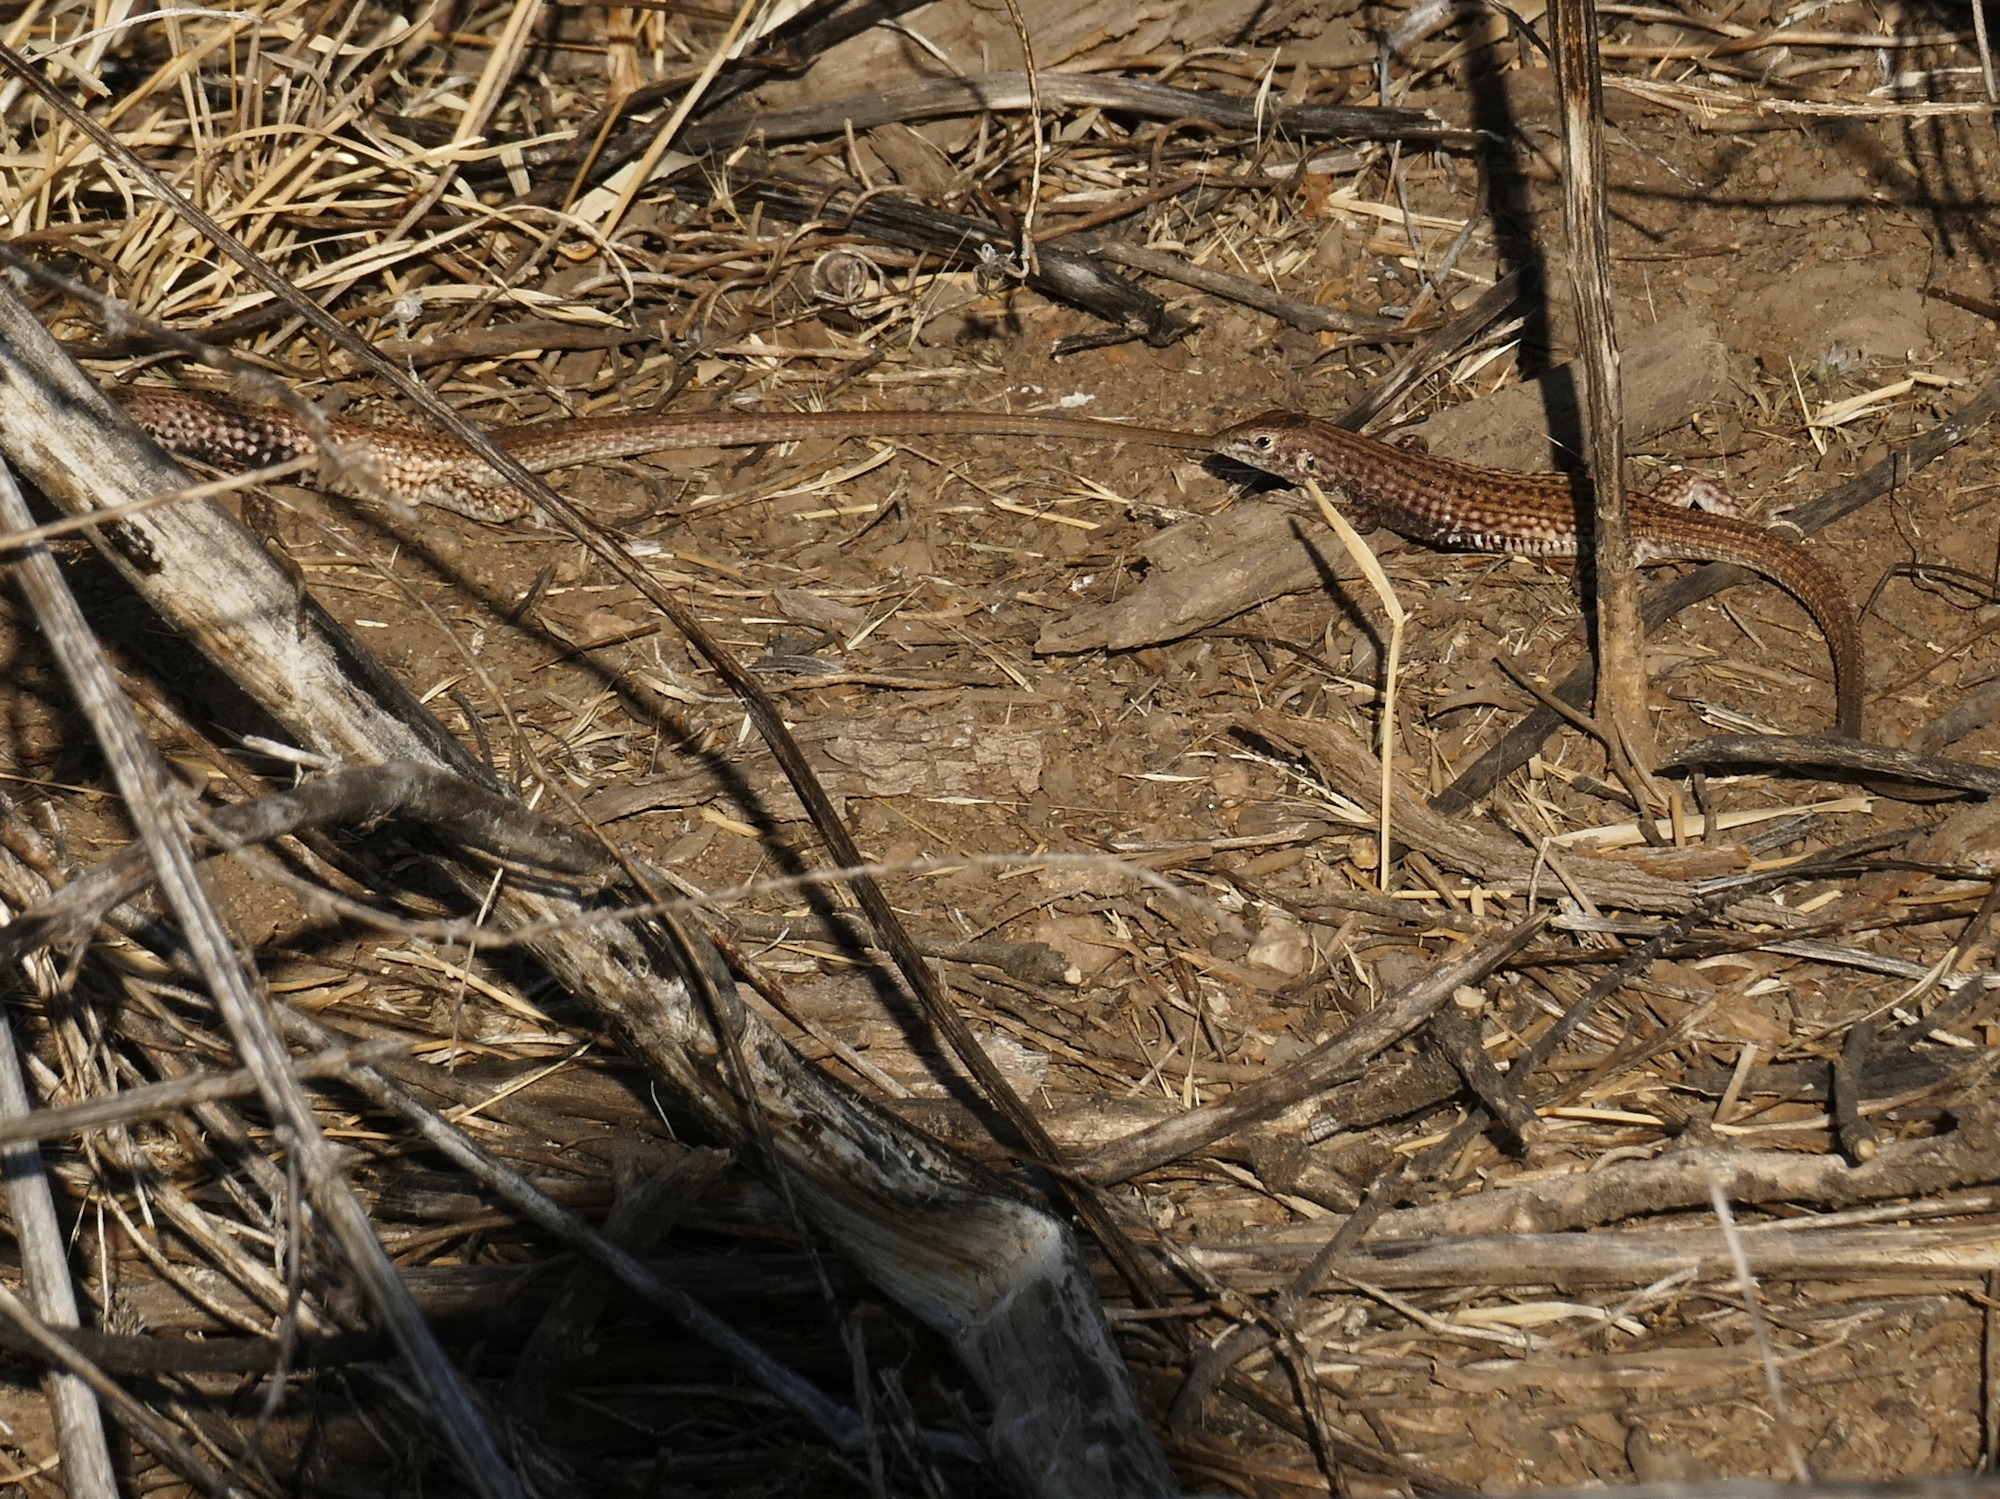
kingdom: Animalia
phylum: Chordata
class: Squamata
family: Teiidae
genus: Aspidoscelis
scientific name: Aspidoscelis tigris
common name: Tiger whiptail
